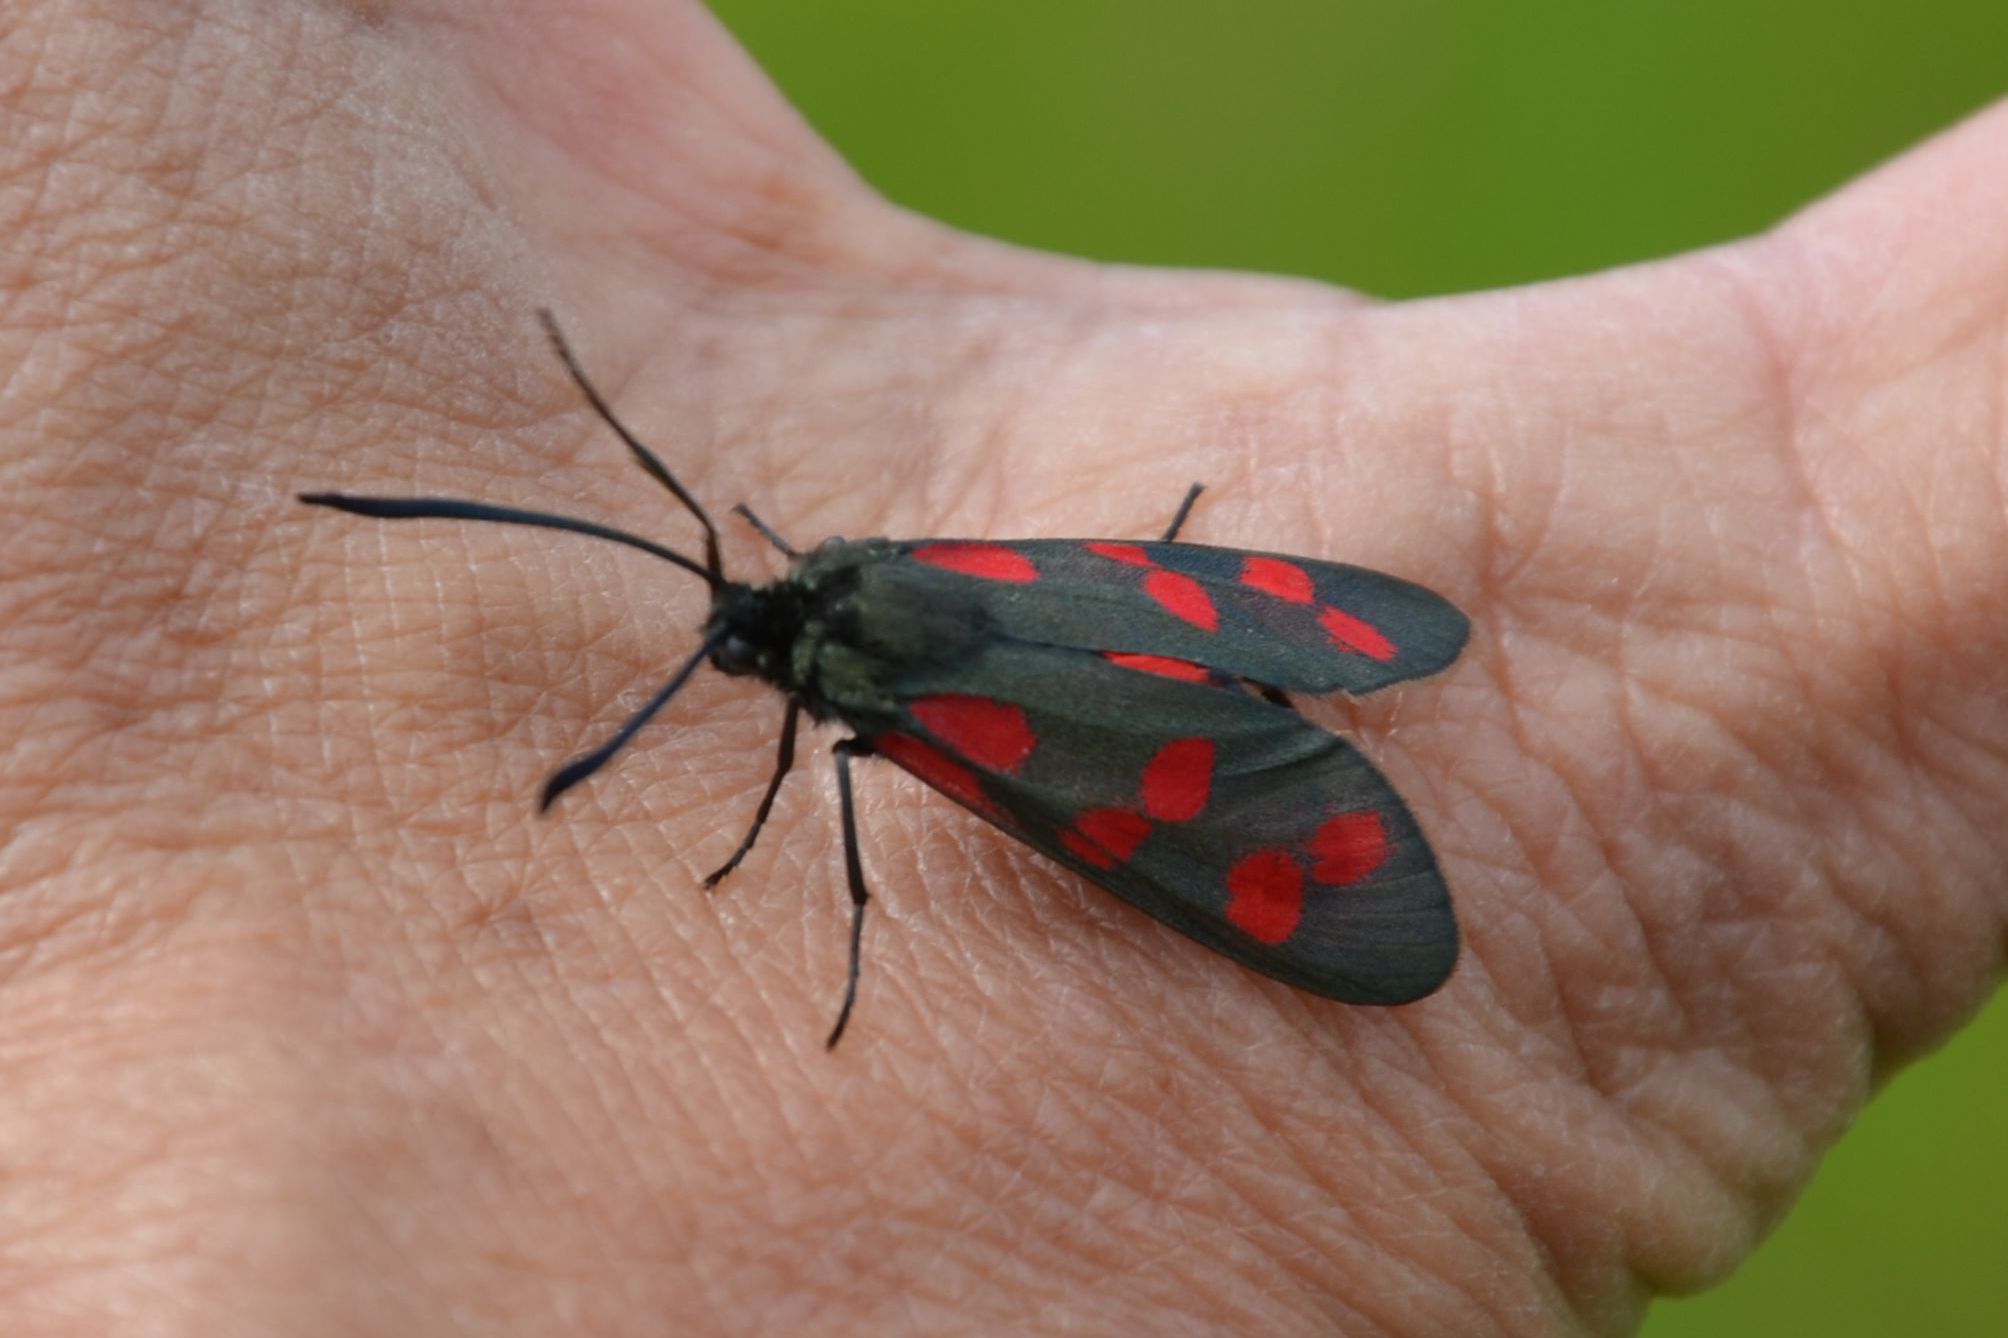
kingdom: Animalia
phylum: Arthropoda
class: Insecta
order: Lepidoptera
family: Zygaenidae
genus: Zygaena
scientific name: Zygaena filipendulae
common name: Six-spot burnet
